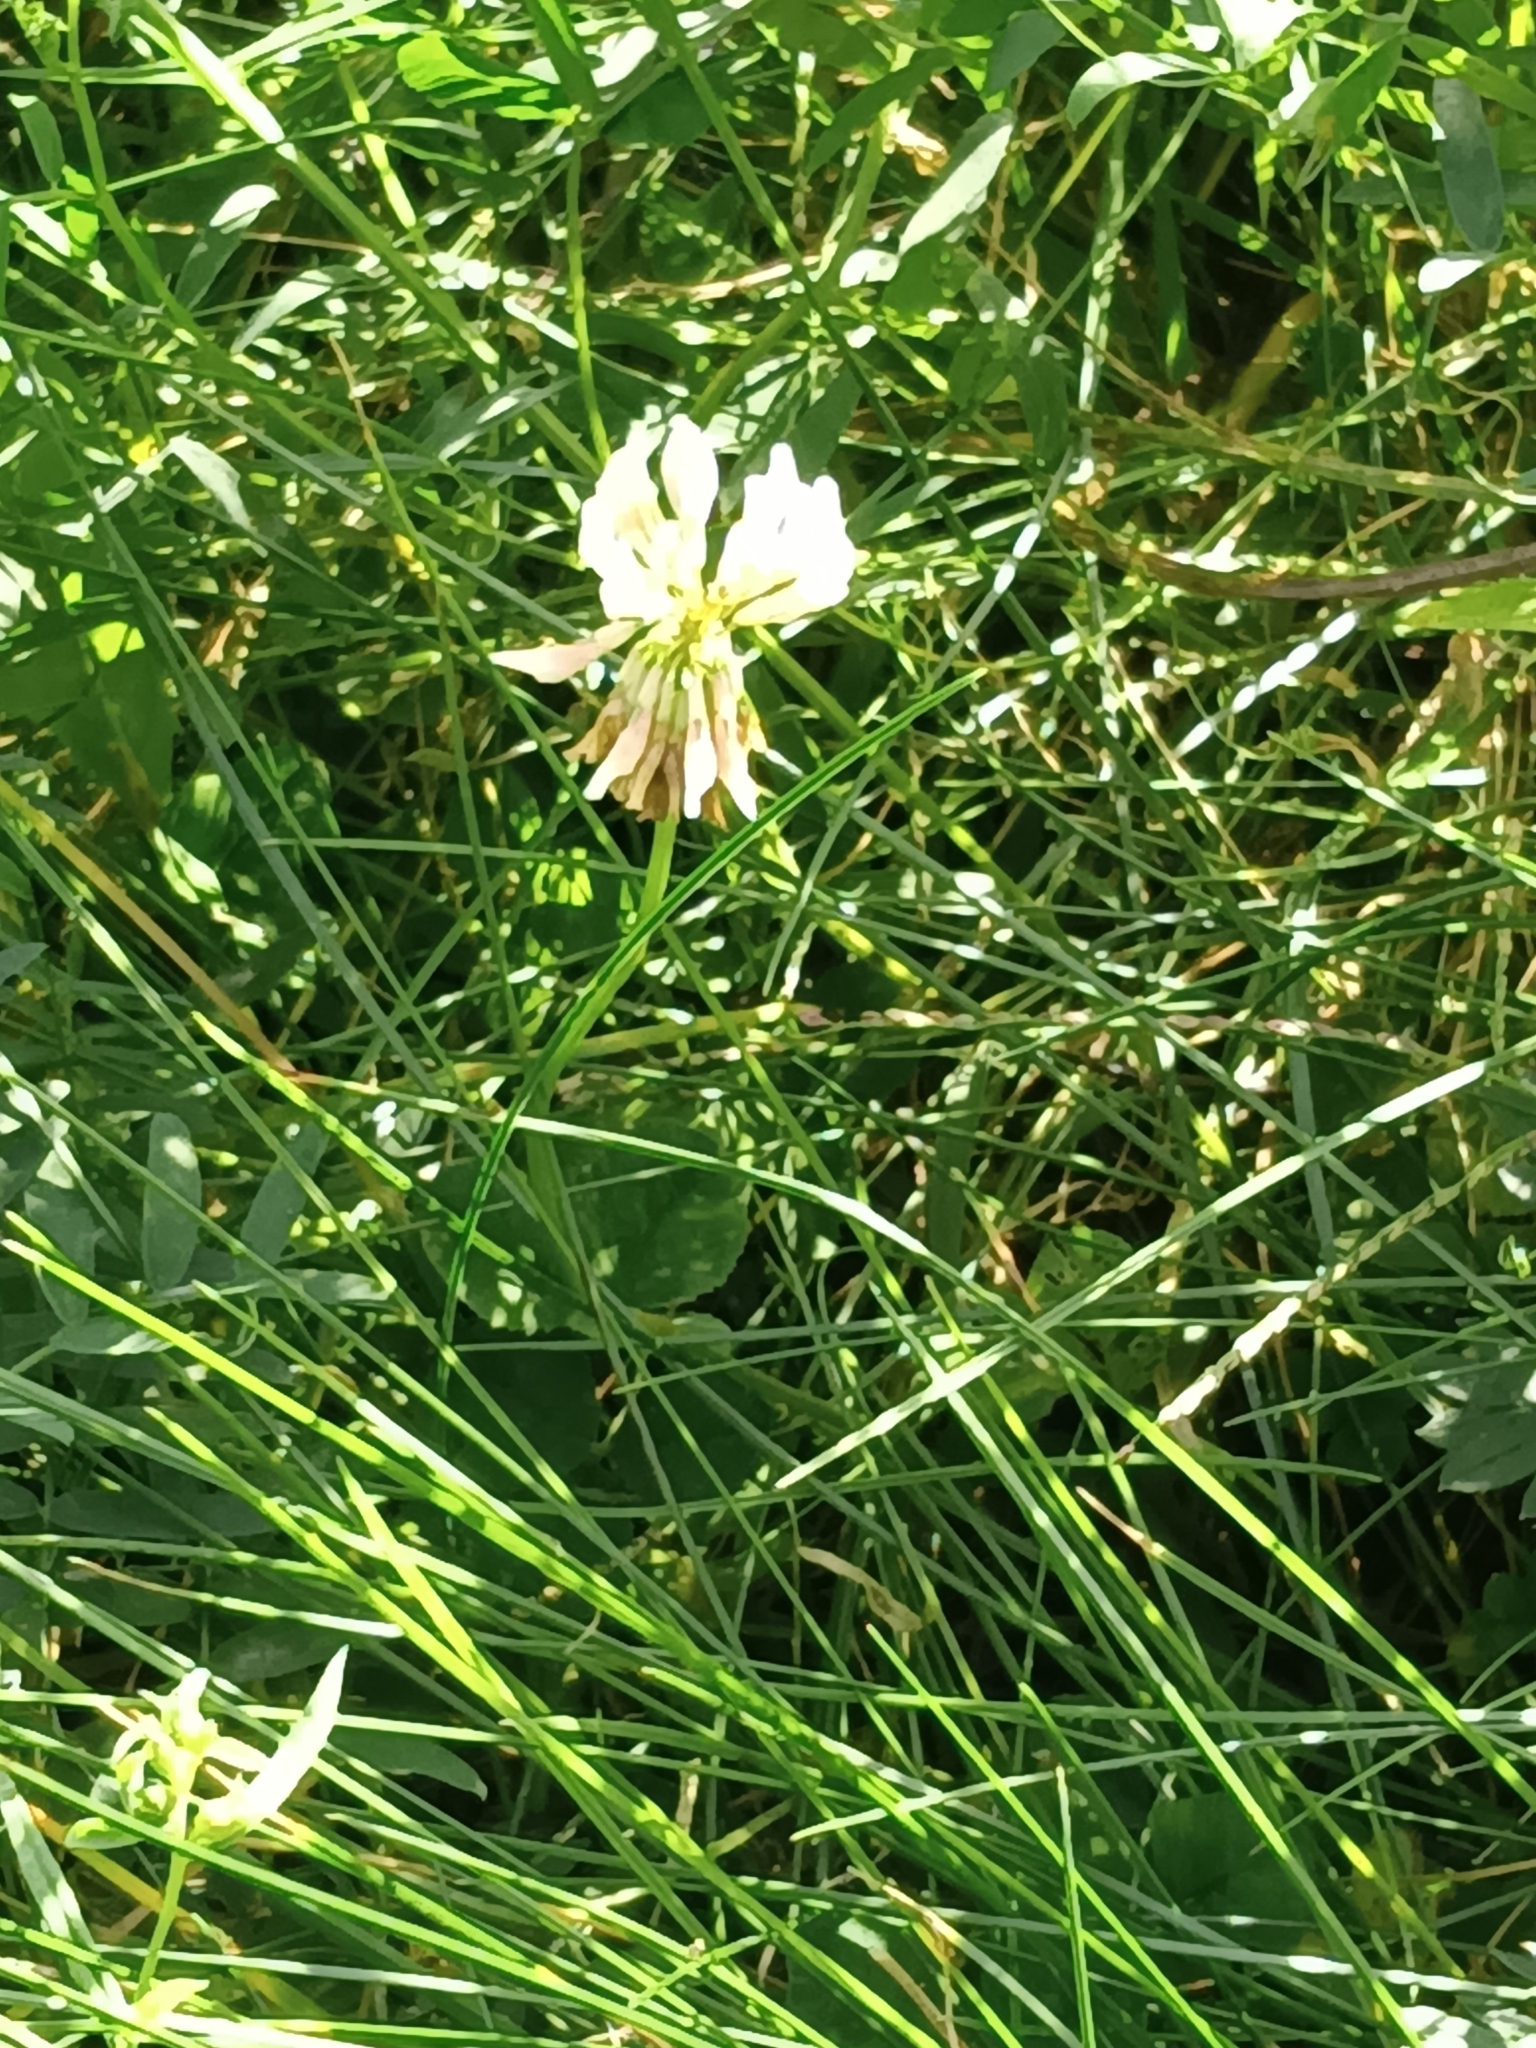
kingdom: Plantae
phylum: Tracheophyta
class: Magnoliopsida
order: Fabales
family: Fabaceae
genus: Trifolium
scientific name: Trifolium repens
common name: White clover
